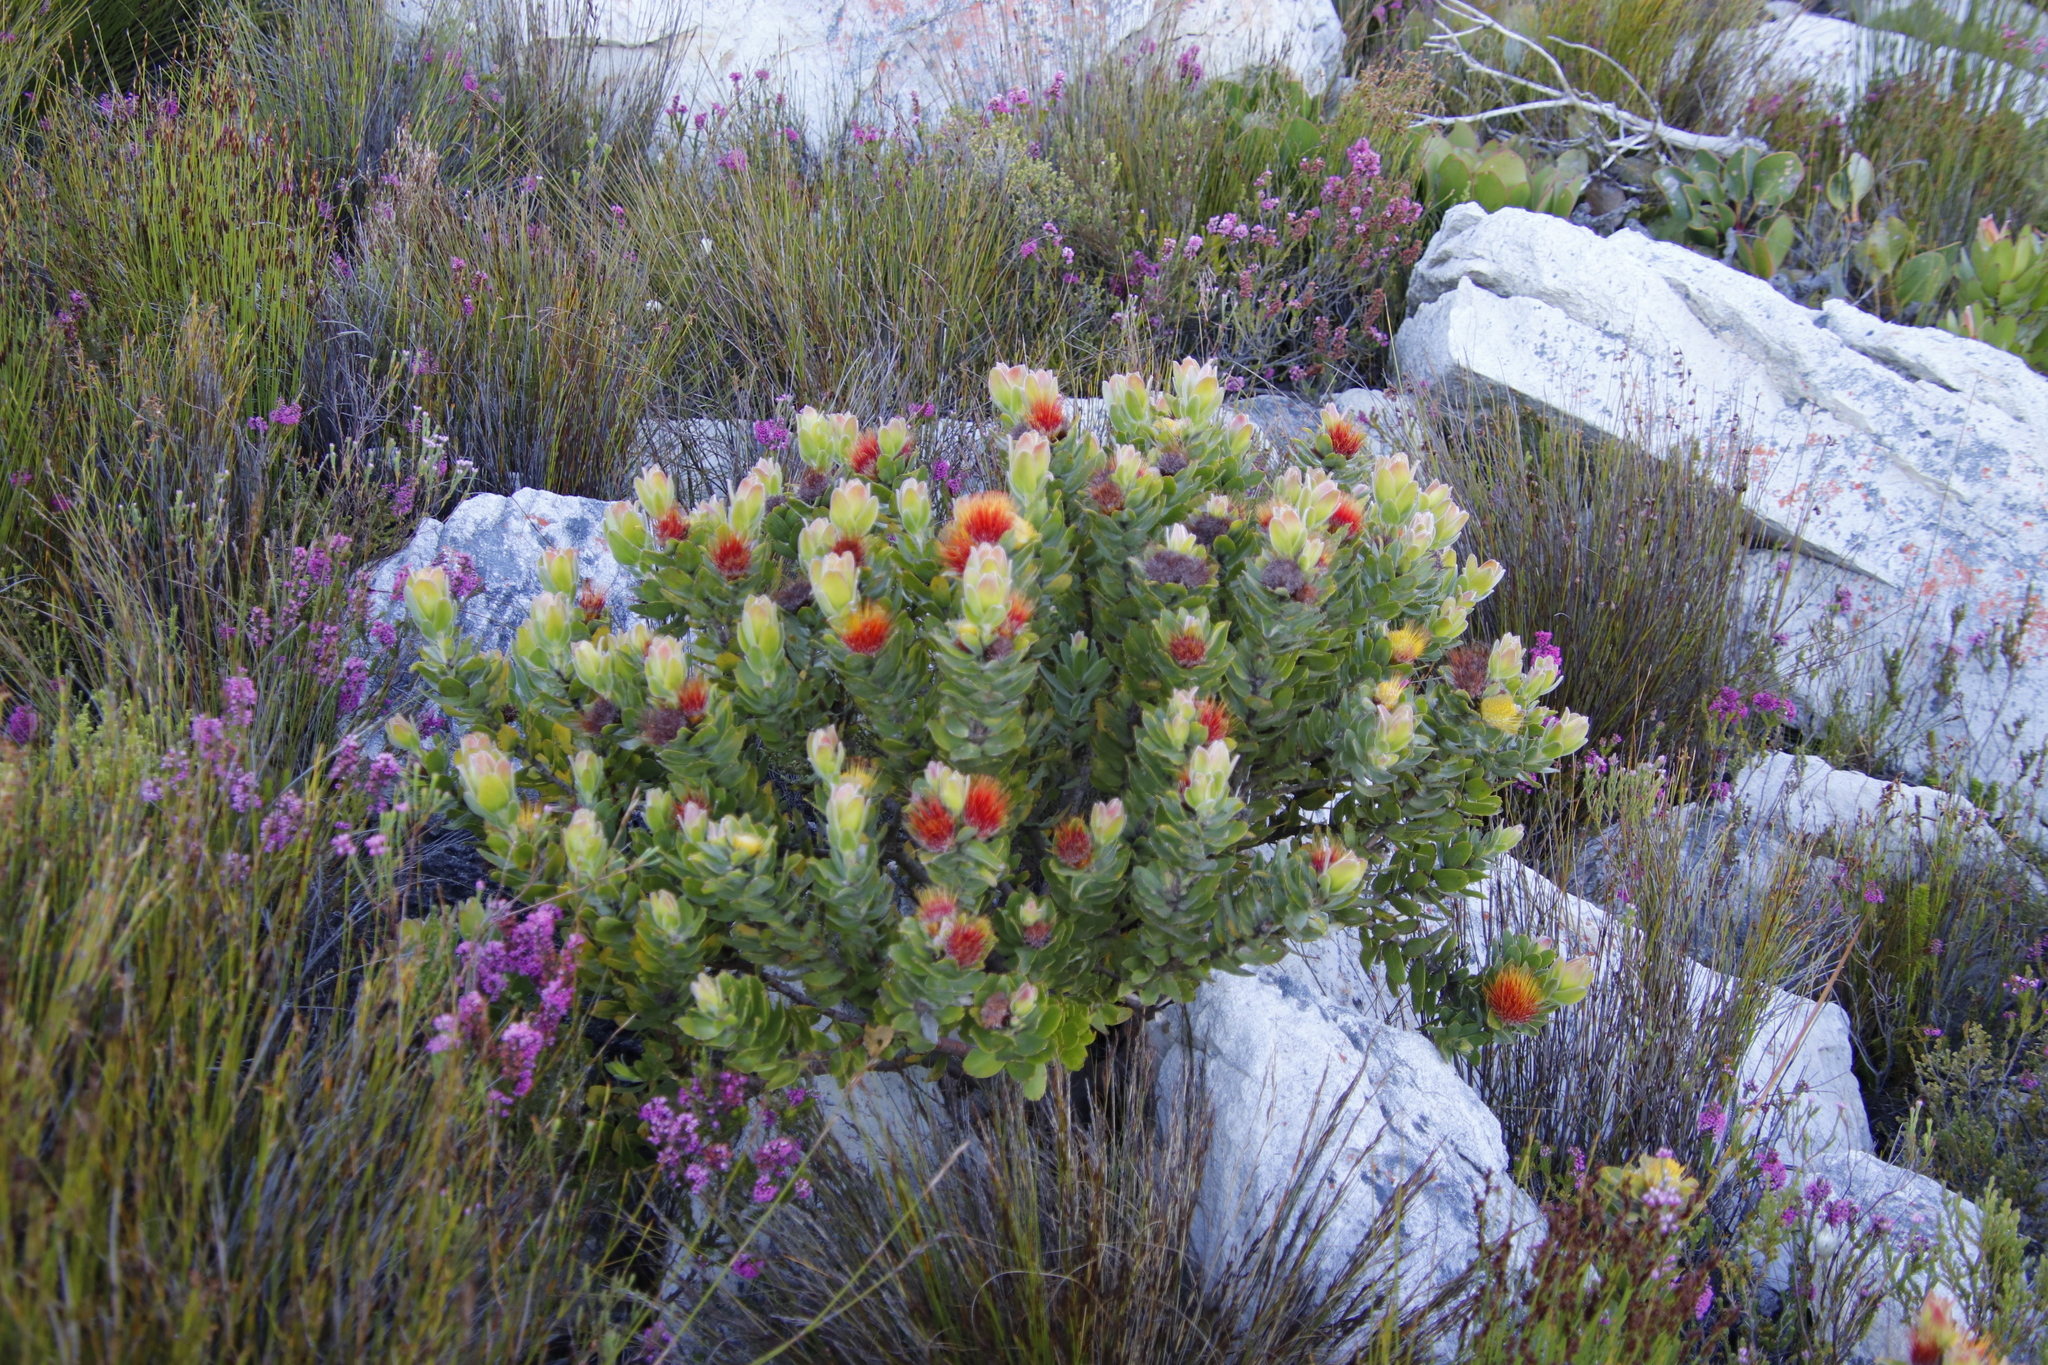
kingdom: Plantae
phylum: Tracheophyta
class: Magnoliopsida
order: Proteales
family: Proteaceae
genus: Leucospermum
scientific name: Leucospermum oleifolium
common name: Matches
